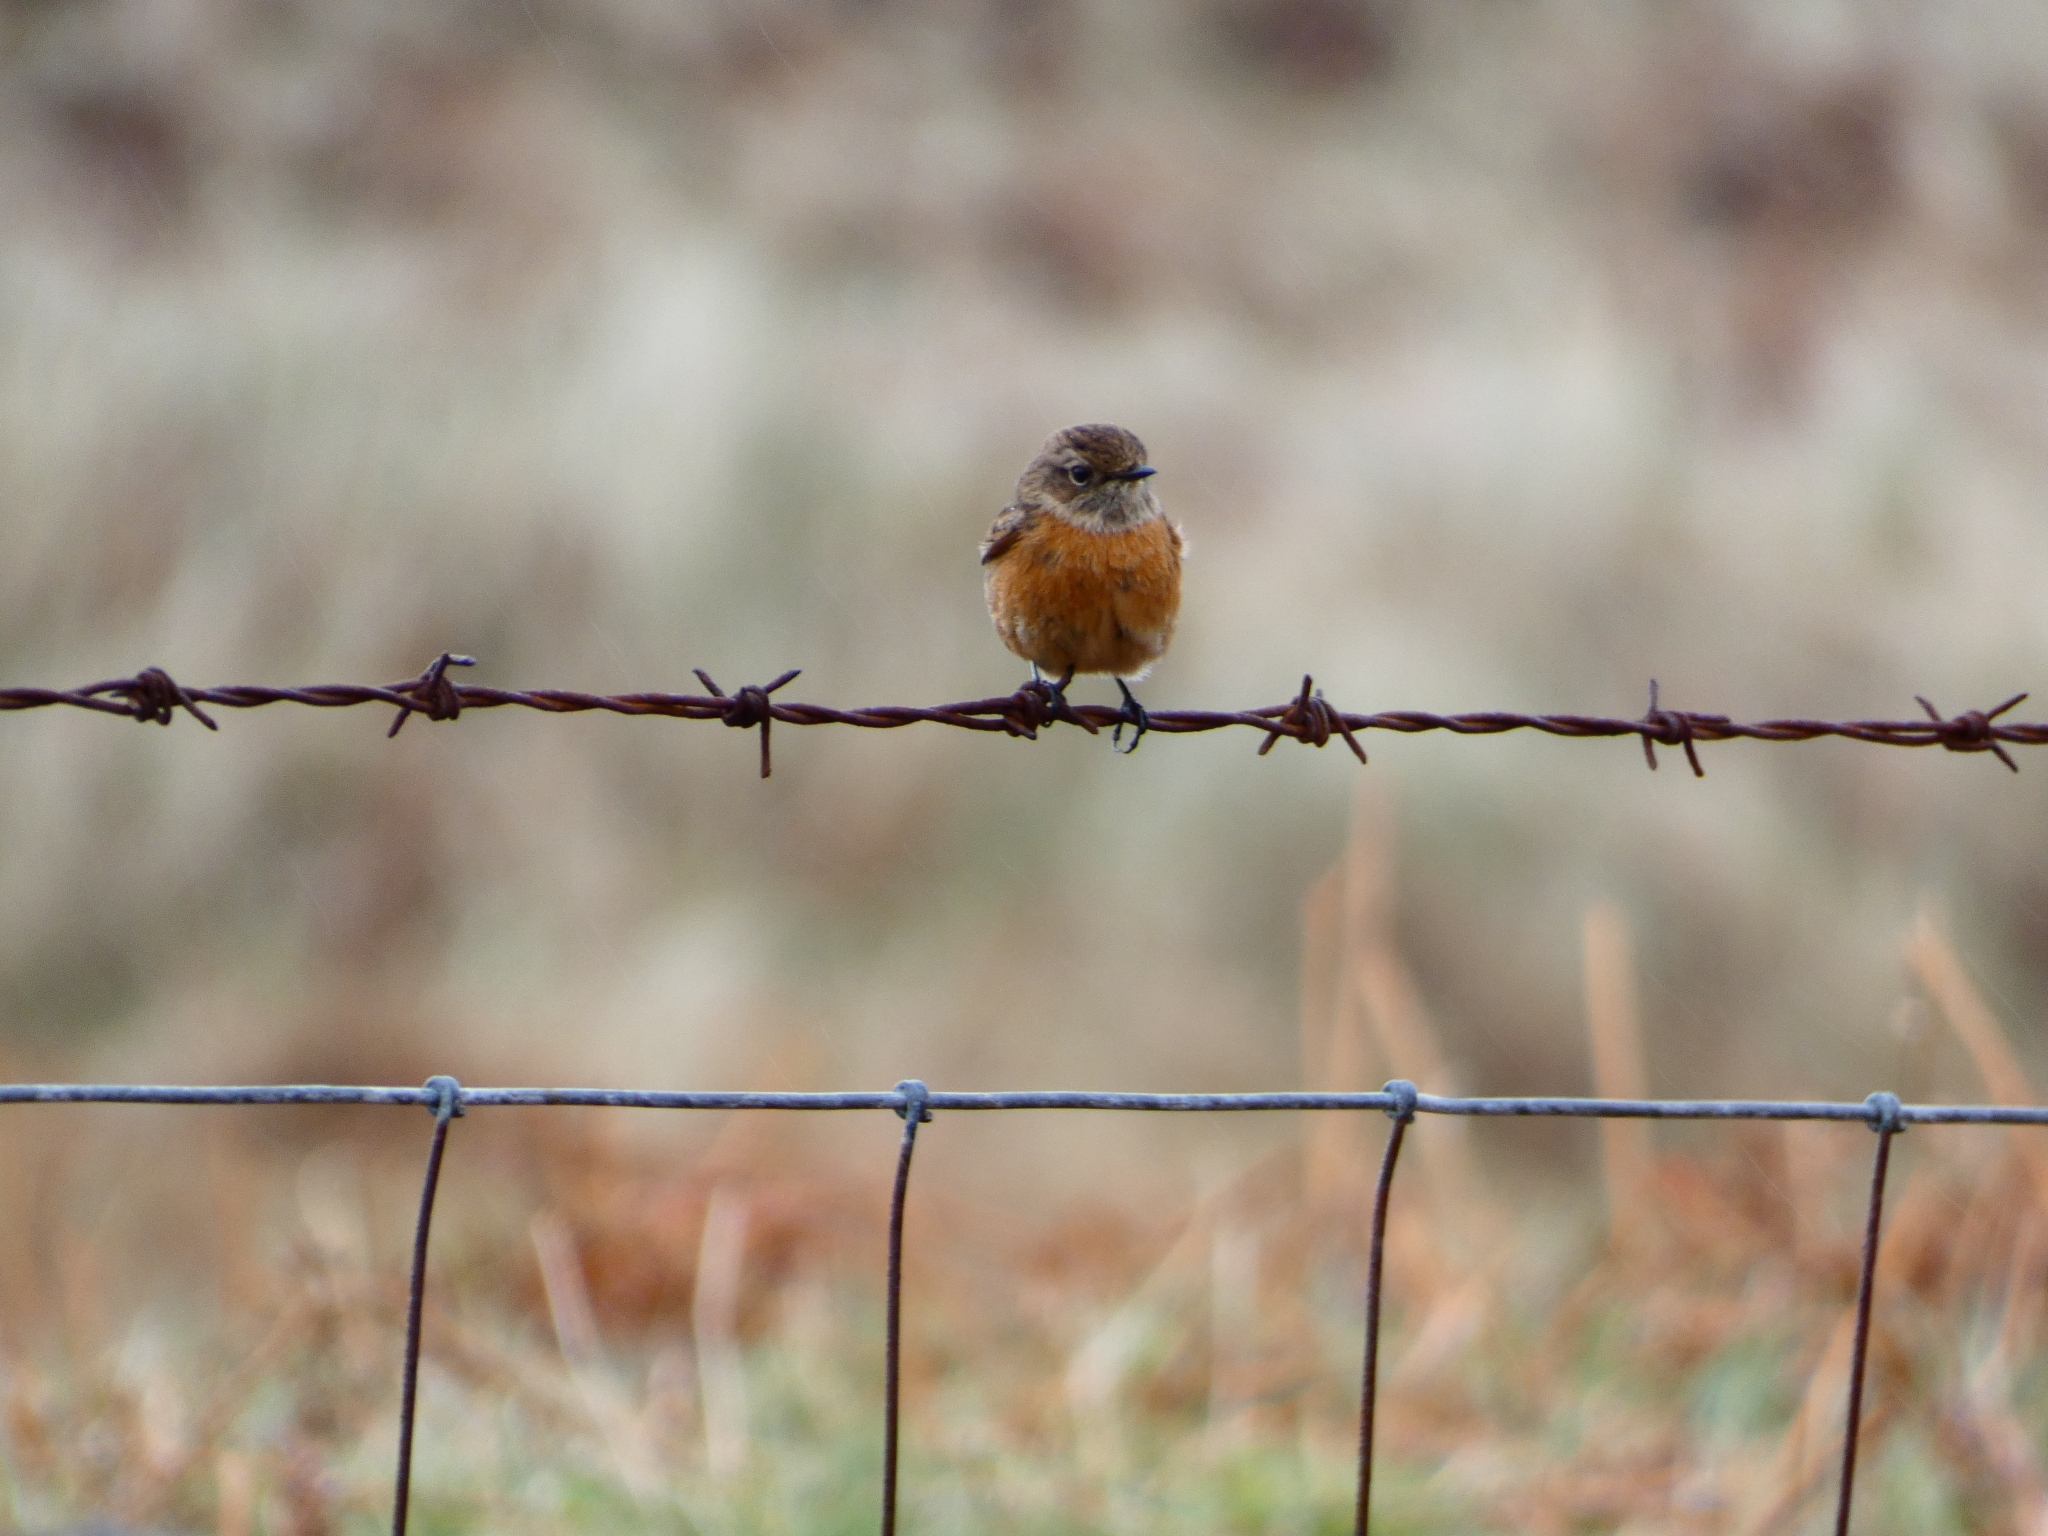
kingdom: Animalia
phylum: Chordata
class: Aves
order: Passeriformes
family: Muscicapidae
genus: Saxicola
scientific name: Saxicola rubicola
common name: European stonechat
